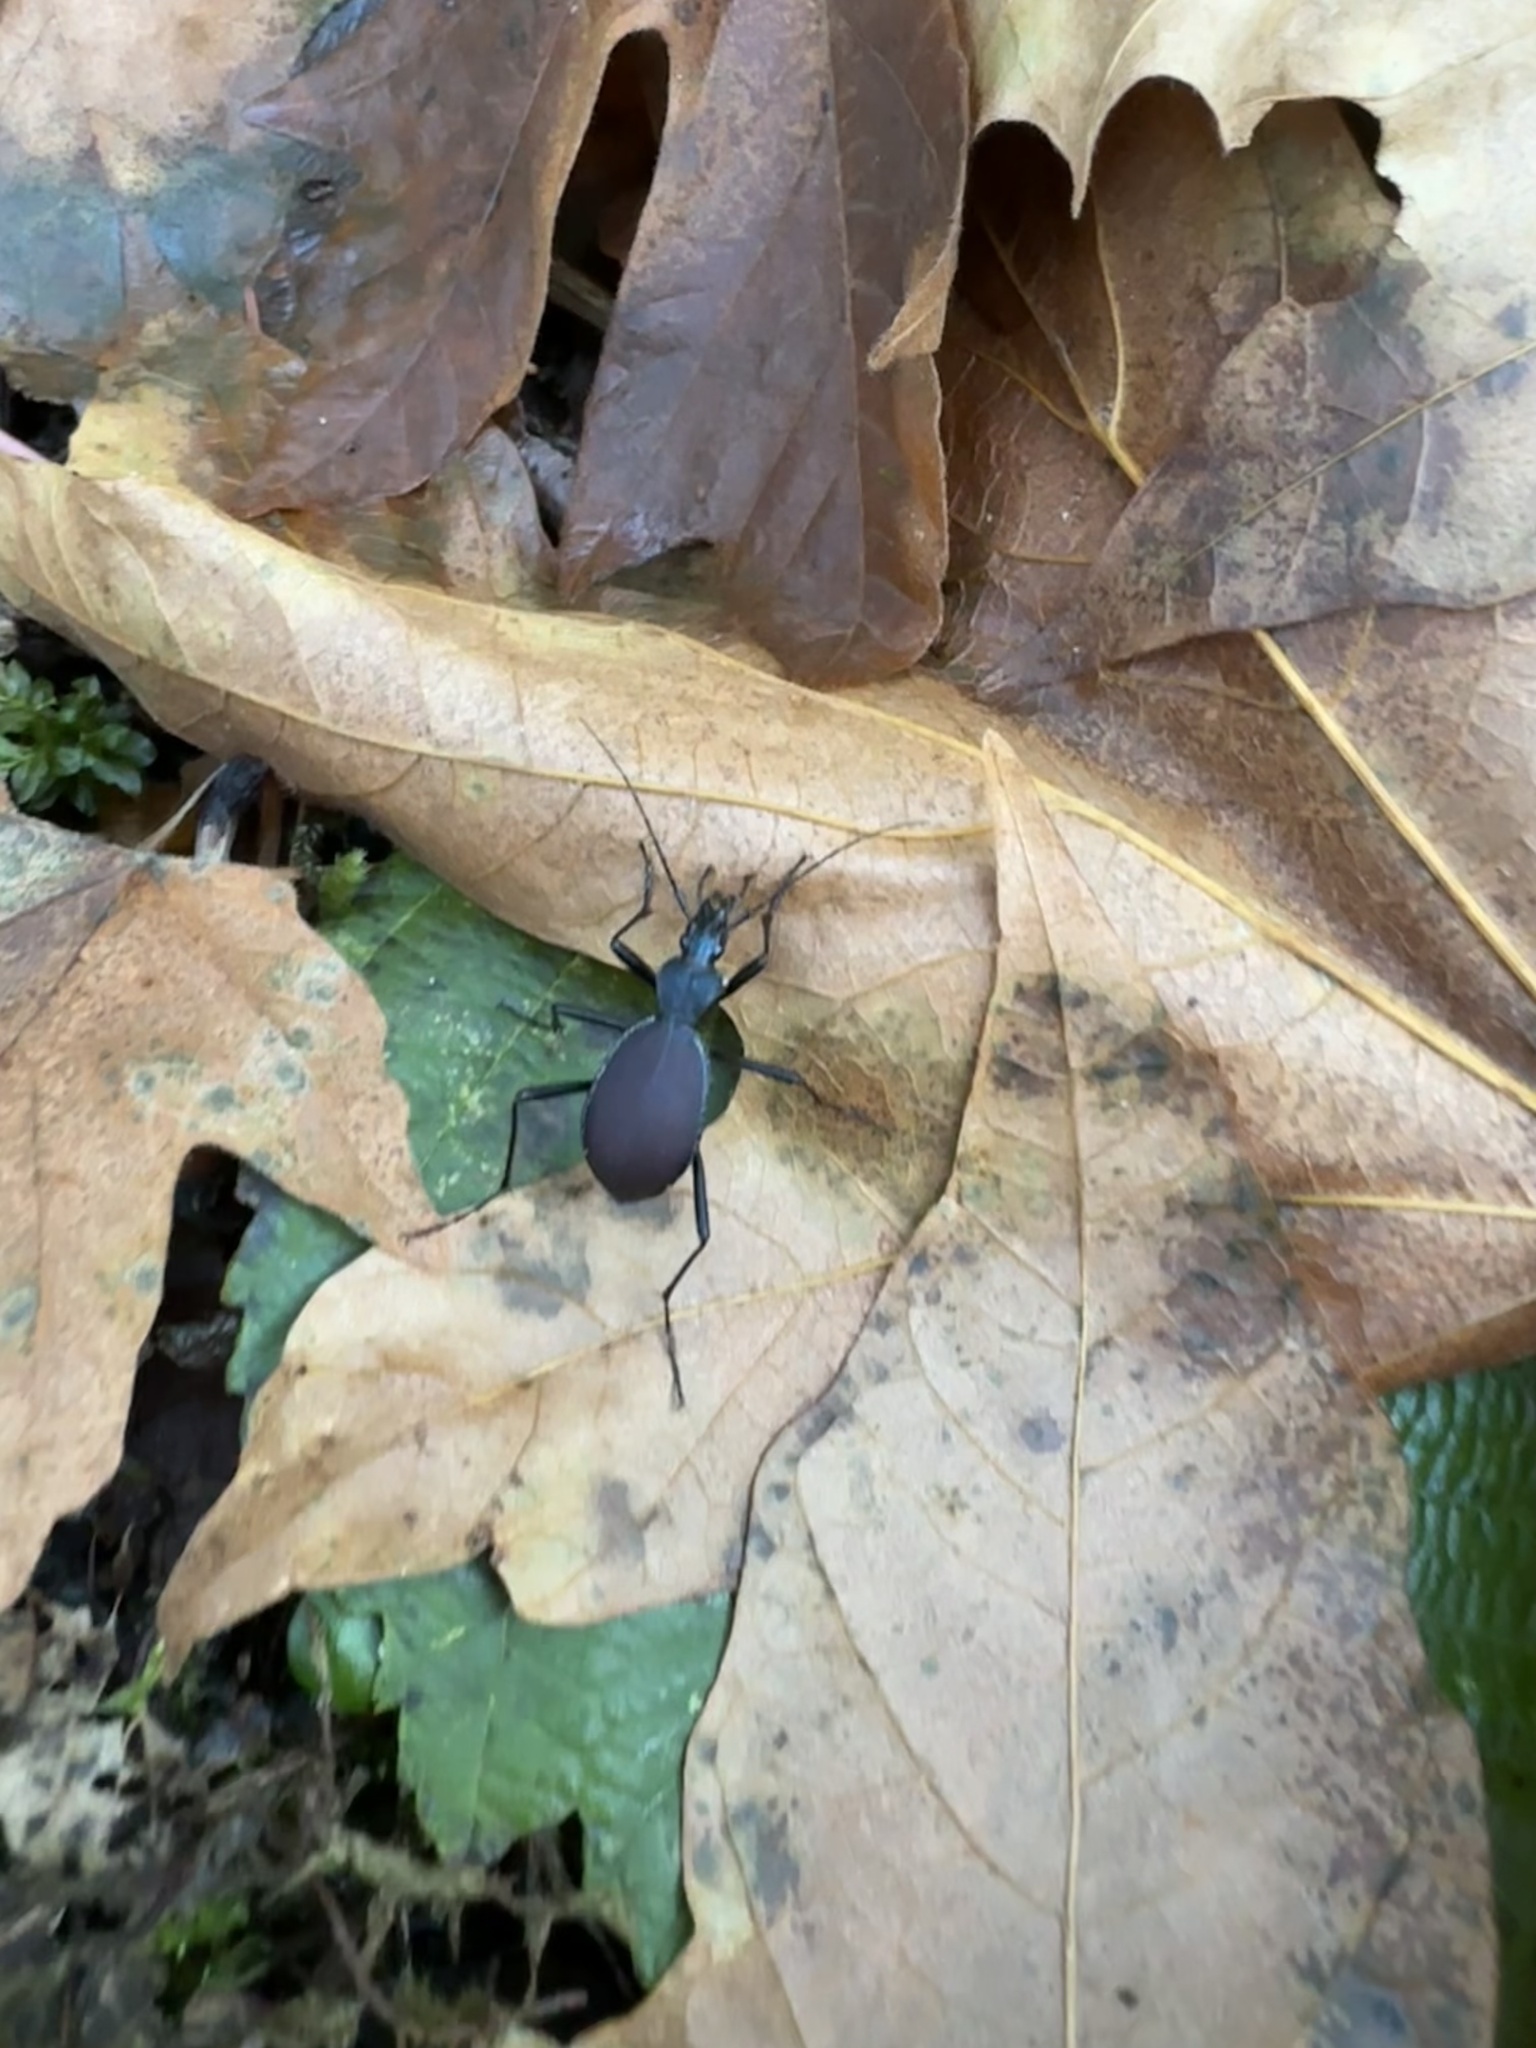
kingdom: Animalia
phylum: Arthropoda
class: Insecta
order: Coleoptera
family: Carabidae
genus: Scaphinotus
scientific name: Scaphinotus angusticollis
